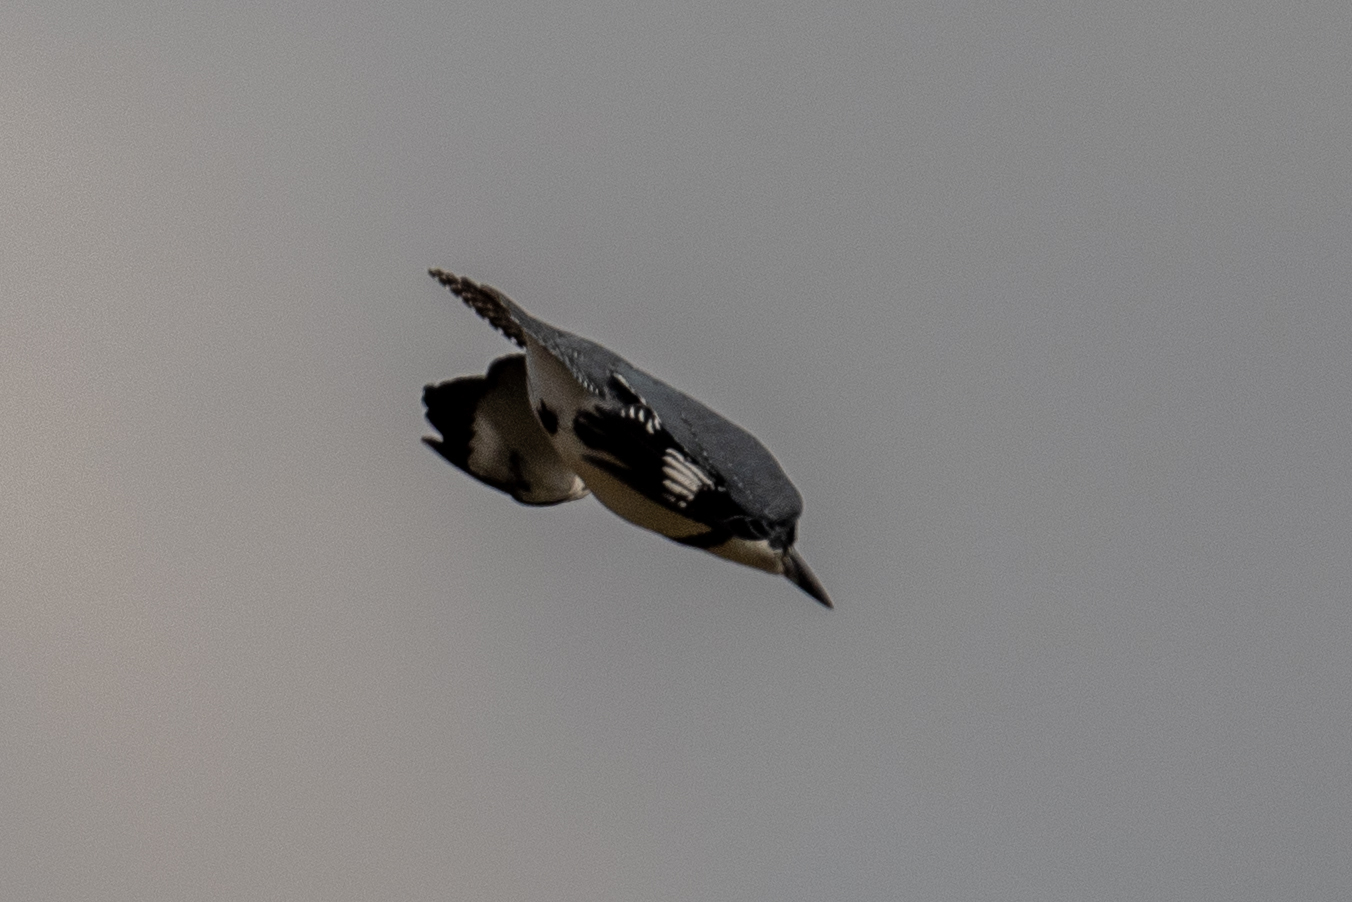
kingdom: Animalia
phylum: Chordata
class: Aves
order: Coraciiformes
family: Alcedinidae
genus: Megaceryle
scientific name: Megaceryle alcyon
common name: Belted kingfisher
